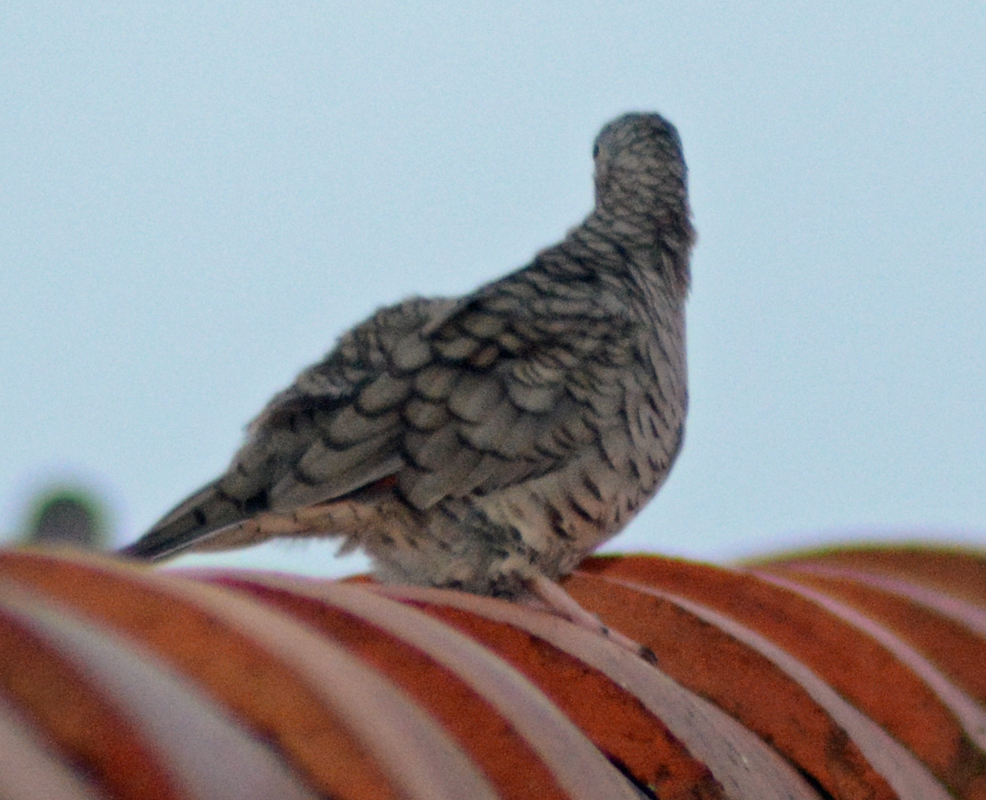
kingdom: Animalia
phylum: Chordata
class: Aves
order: Columbiformes
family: Columbidae
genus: Columbina
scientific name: Columbina inca
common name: Inca dove
